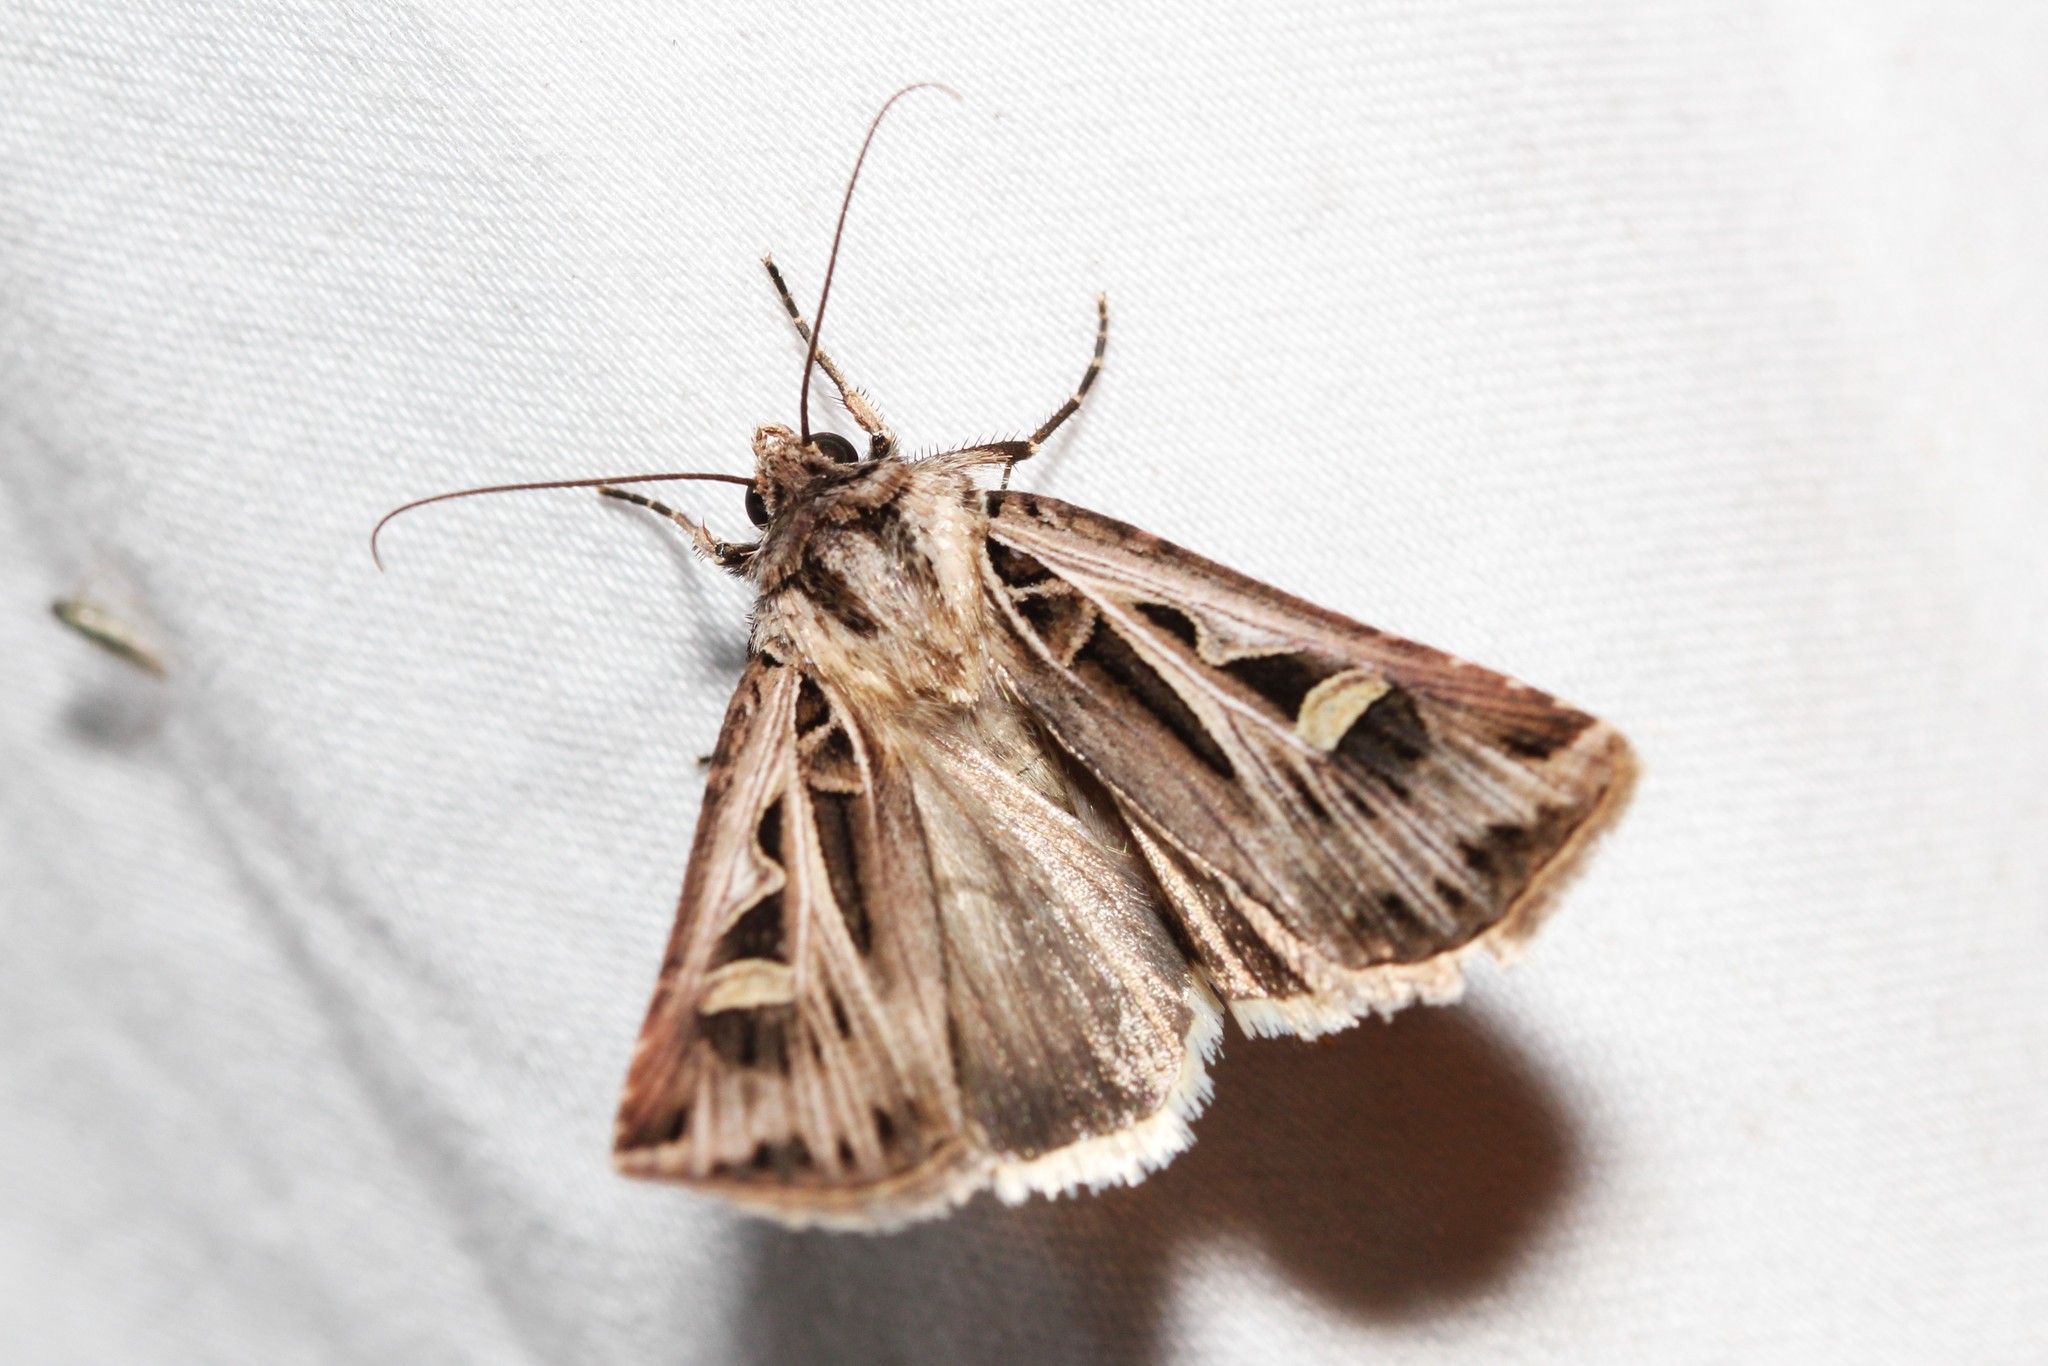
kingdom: Animalia
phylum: Arthropoda
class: Insecta
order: Lepidoptera
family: Noctuidae
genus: Feltia
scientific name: Feltia jaculifera
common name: Dingy cutworm moth
